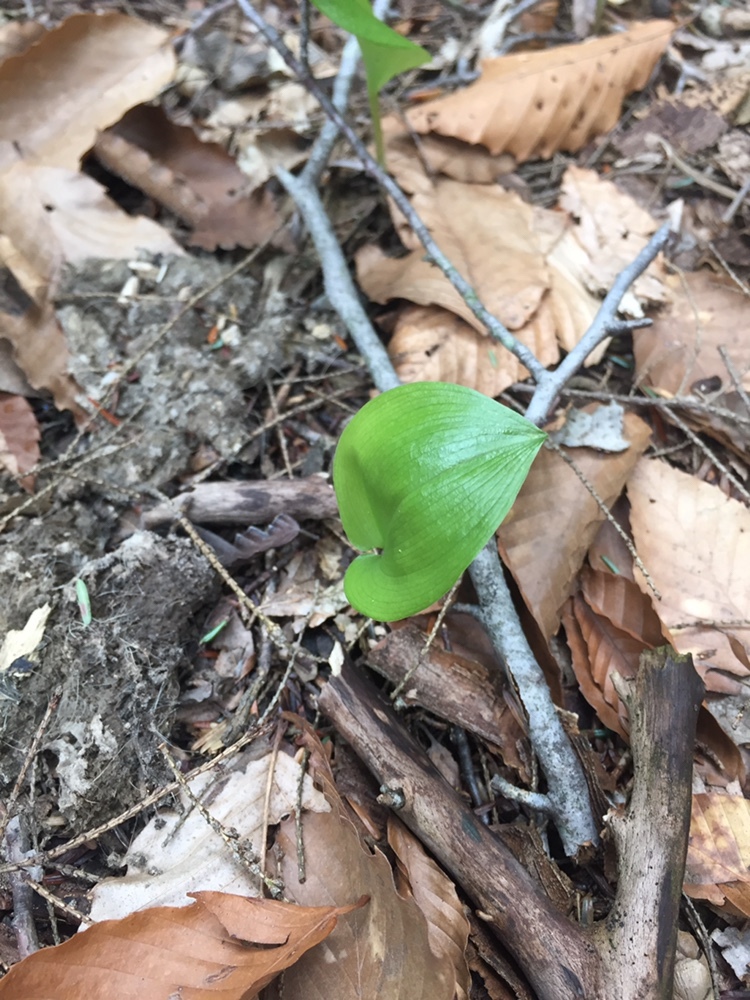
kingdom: Plantae
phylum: Tracheophyta
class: Liliopsida
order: Asparagales
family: Asparagaceae
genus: Maianthemum
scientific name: Maianthemum canadense
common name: False lily-of-the-valley
